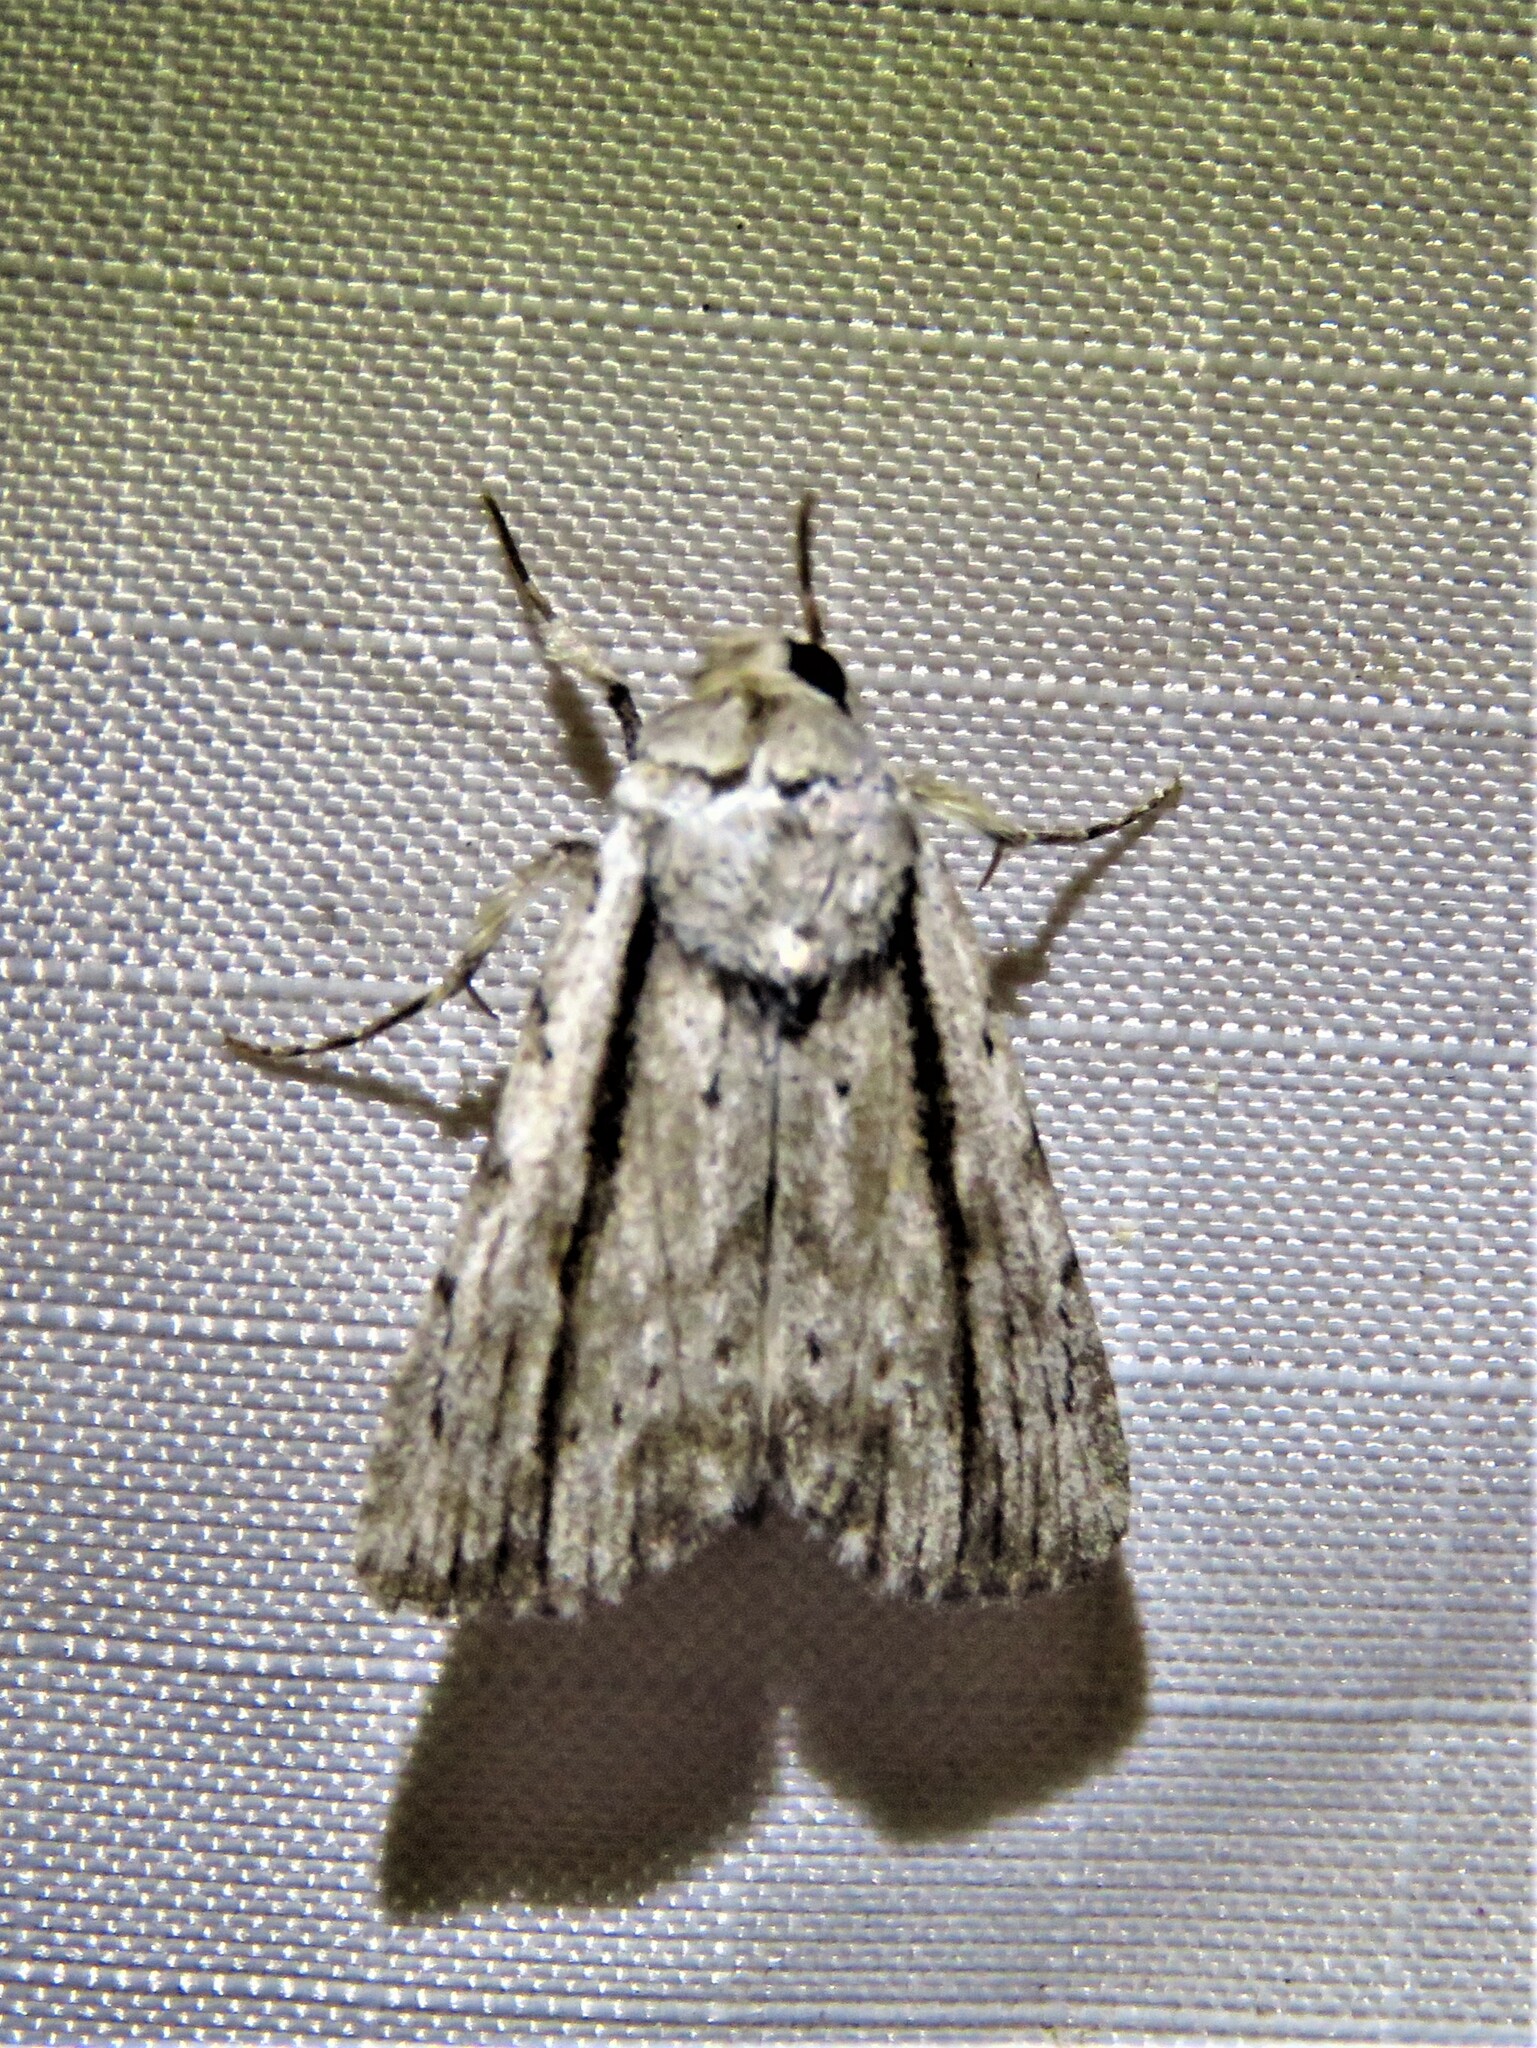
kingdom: Animalia
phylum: Arthropoda
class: Insecta
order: Lepidoptera
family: Noctuidae
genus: Catabenoides
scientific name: Catabenoides terminellus
